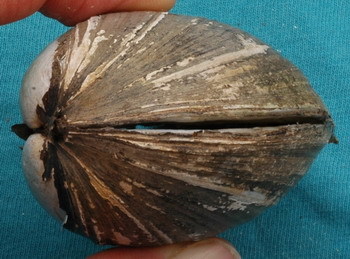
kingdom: Animalia
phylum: Mollusca
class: Bivalvia
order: Unionida
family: Unionidae
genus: Lampsilis
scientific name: Lampsilis teres
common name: Yellow sandshell
